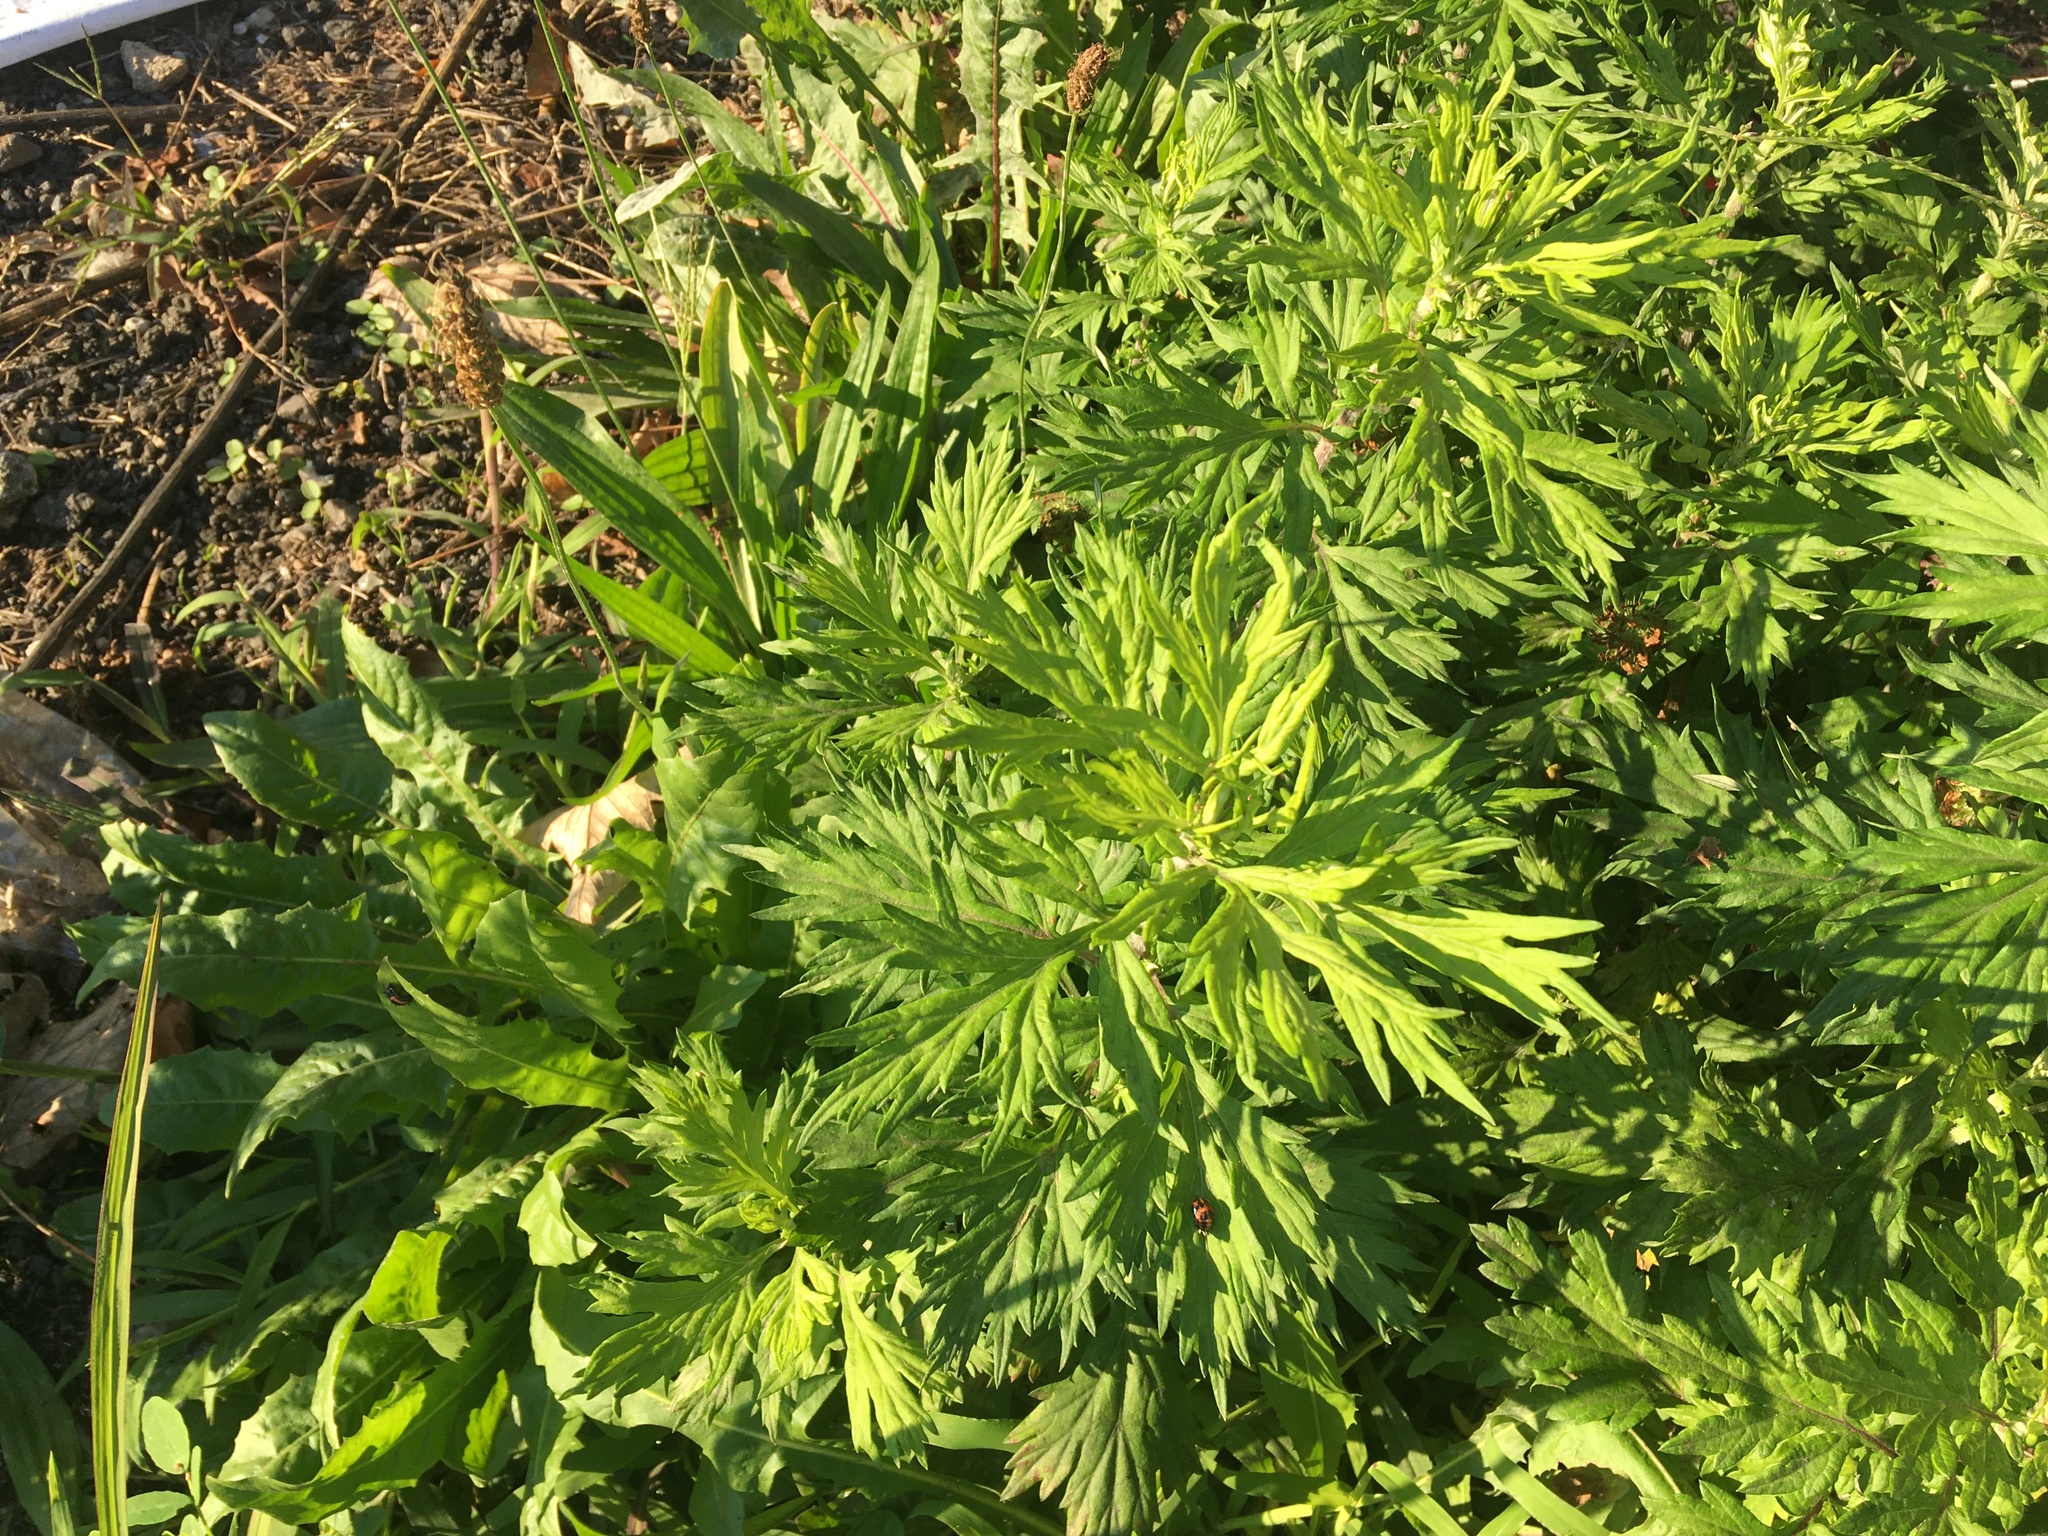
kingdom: Plantae
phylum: Tracheophyta
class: Magnoliopsida
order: Asterales
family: Asteraceae
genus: Artemisia
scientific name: Artemisia vulgaris
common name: Mugwort
